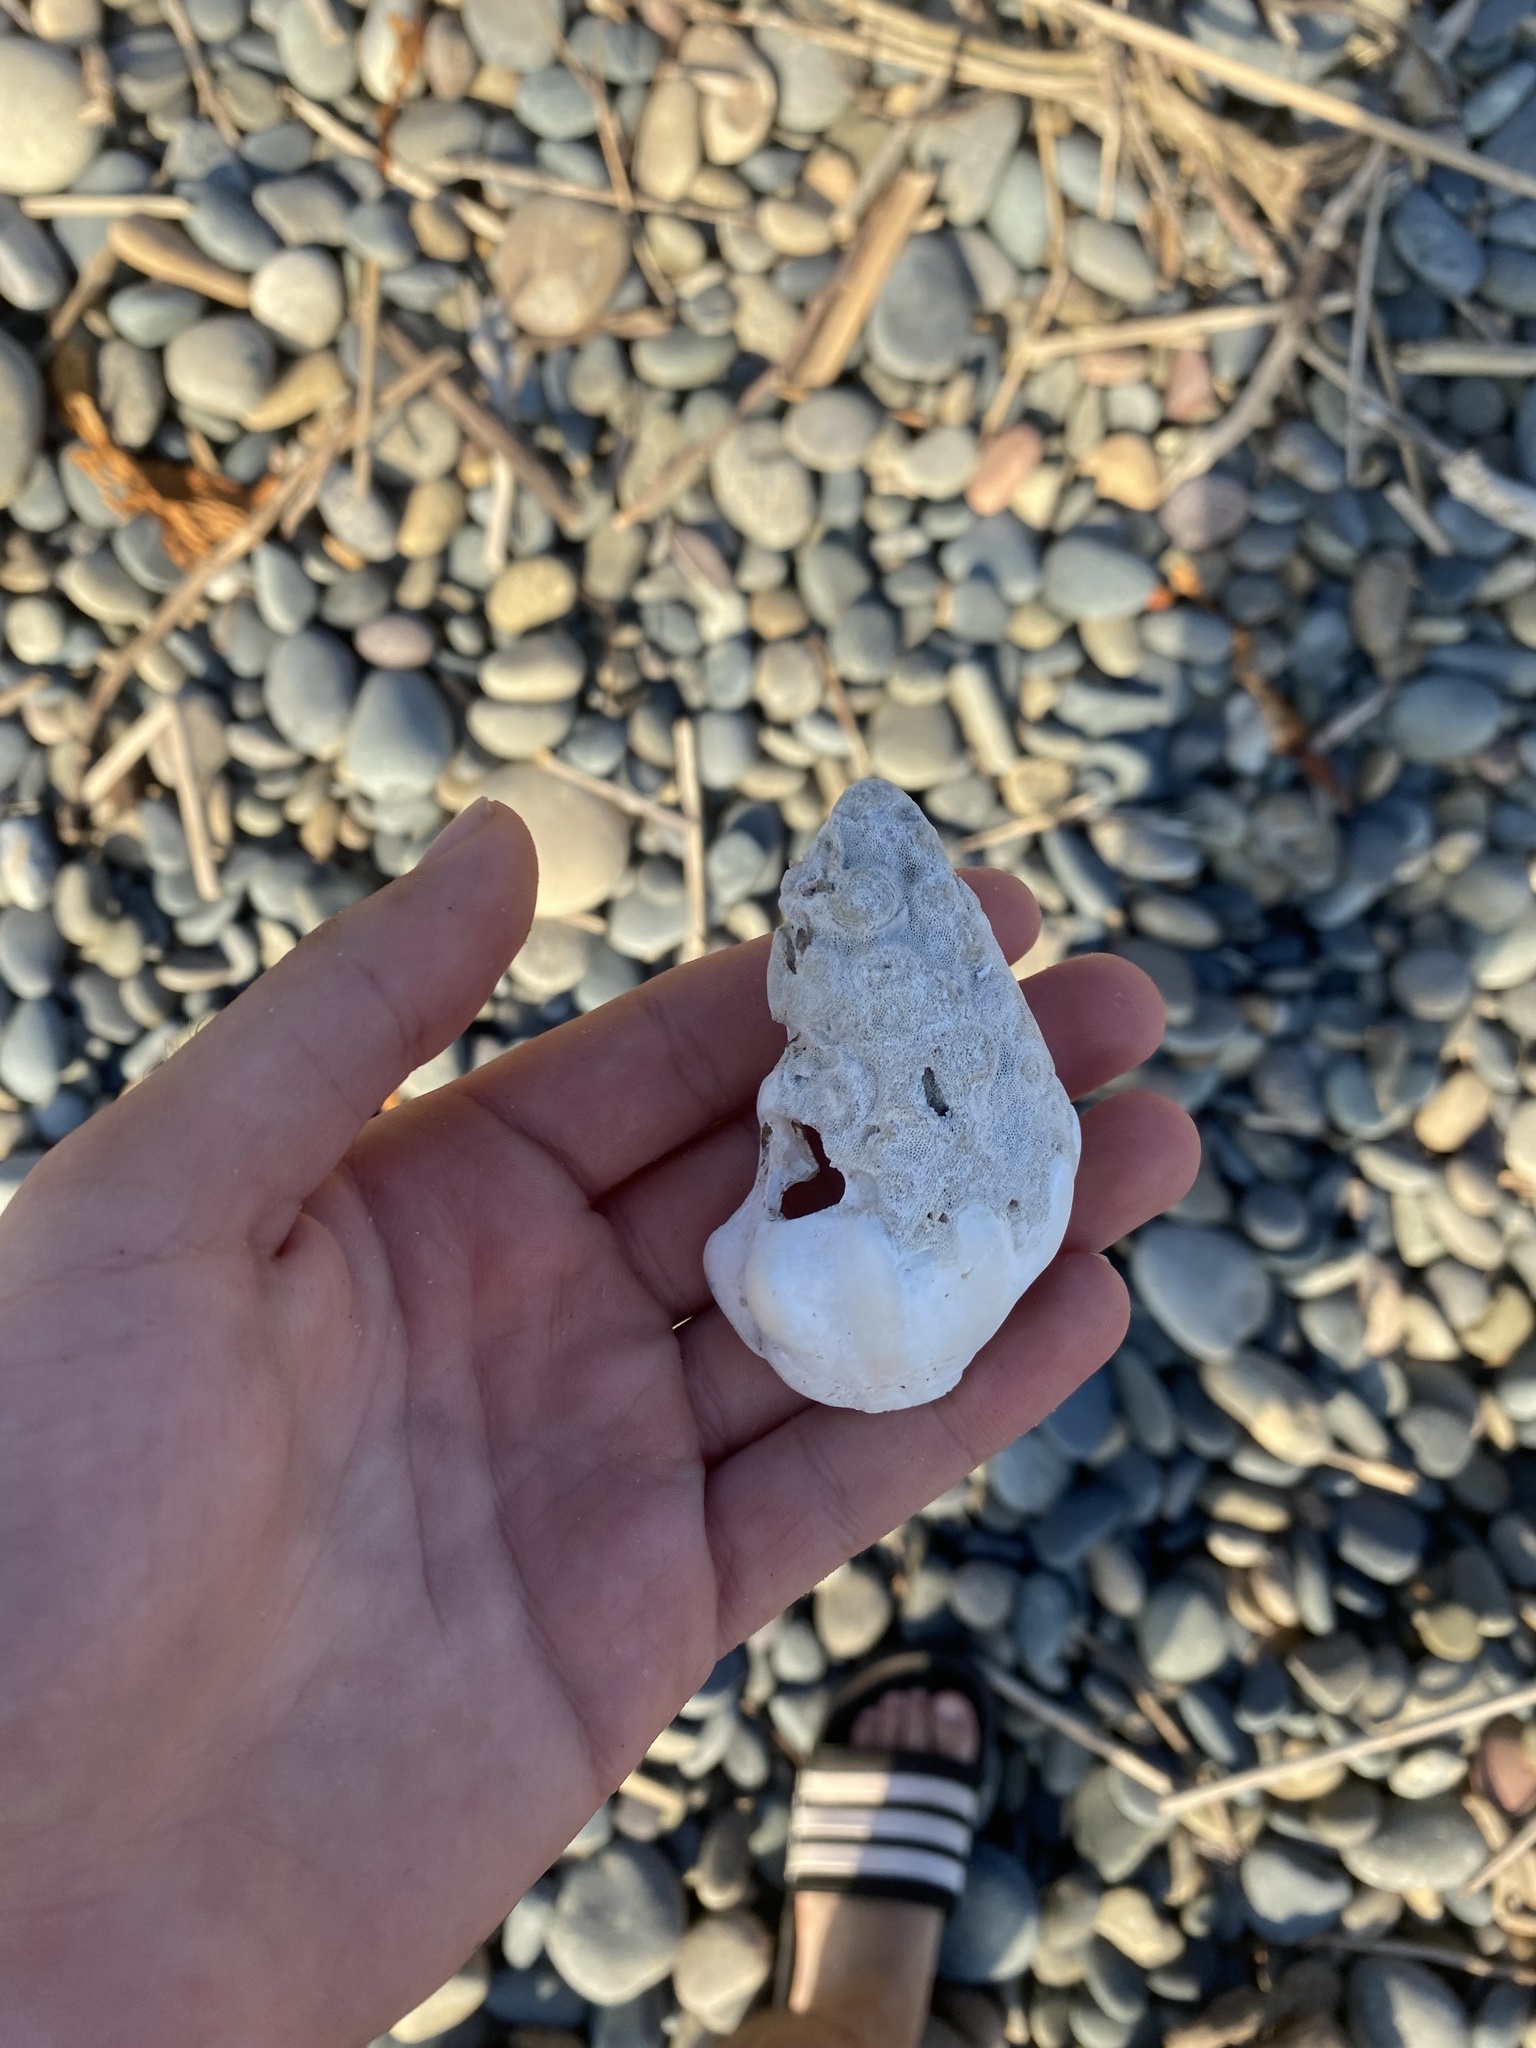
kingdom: Animalia
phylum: Mollusca
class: Gastropoda
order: Neogastropoda
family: Austrosiphonidae
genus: Kelletia
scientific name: Kelletia kelletii
